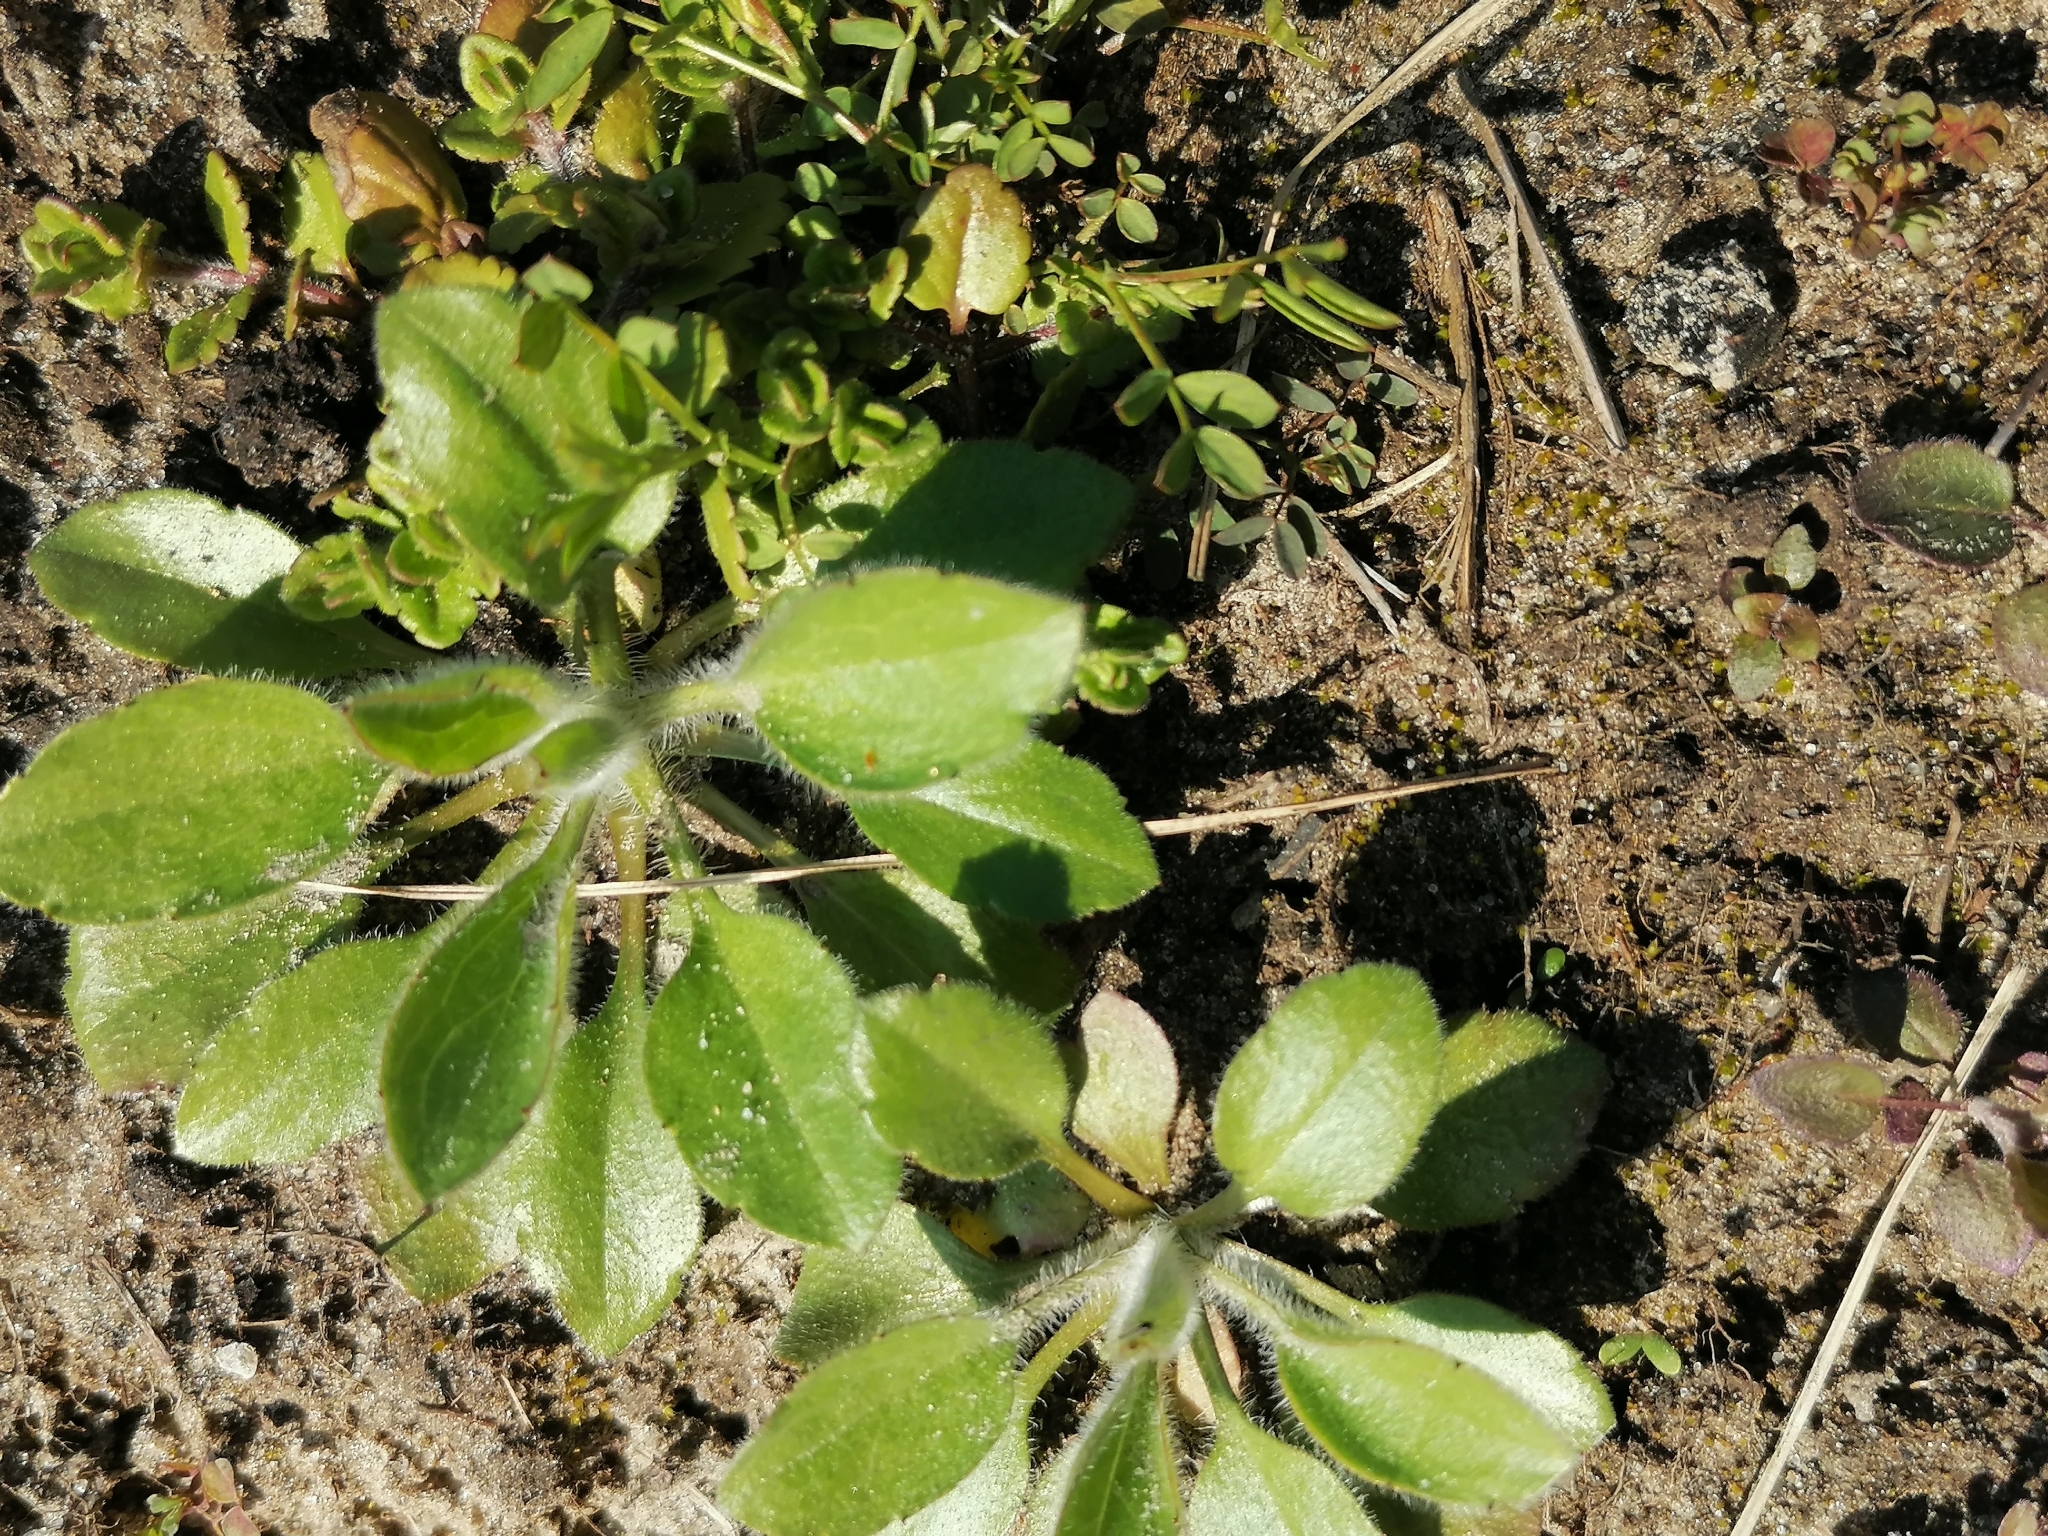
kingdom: Plantae
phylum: Tracheophyta
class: Magnoliopsida
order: Asterales
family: Asteraceae
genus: Erigeron
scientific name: Erigeron canadensis
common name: Canadian fleabane
